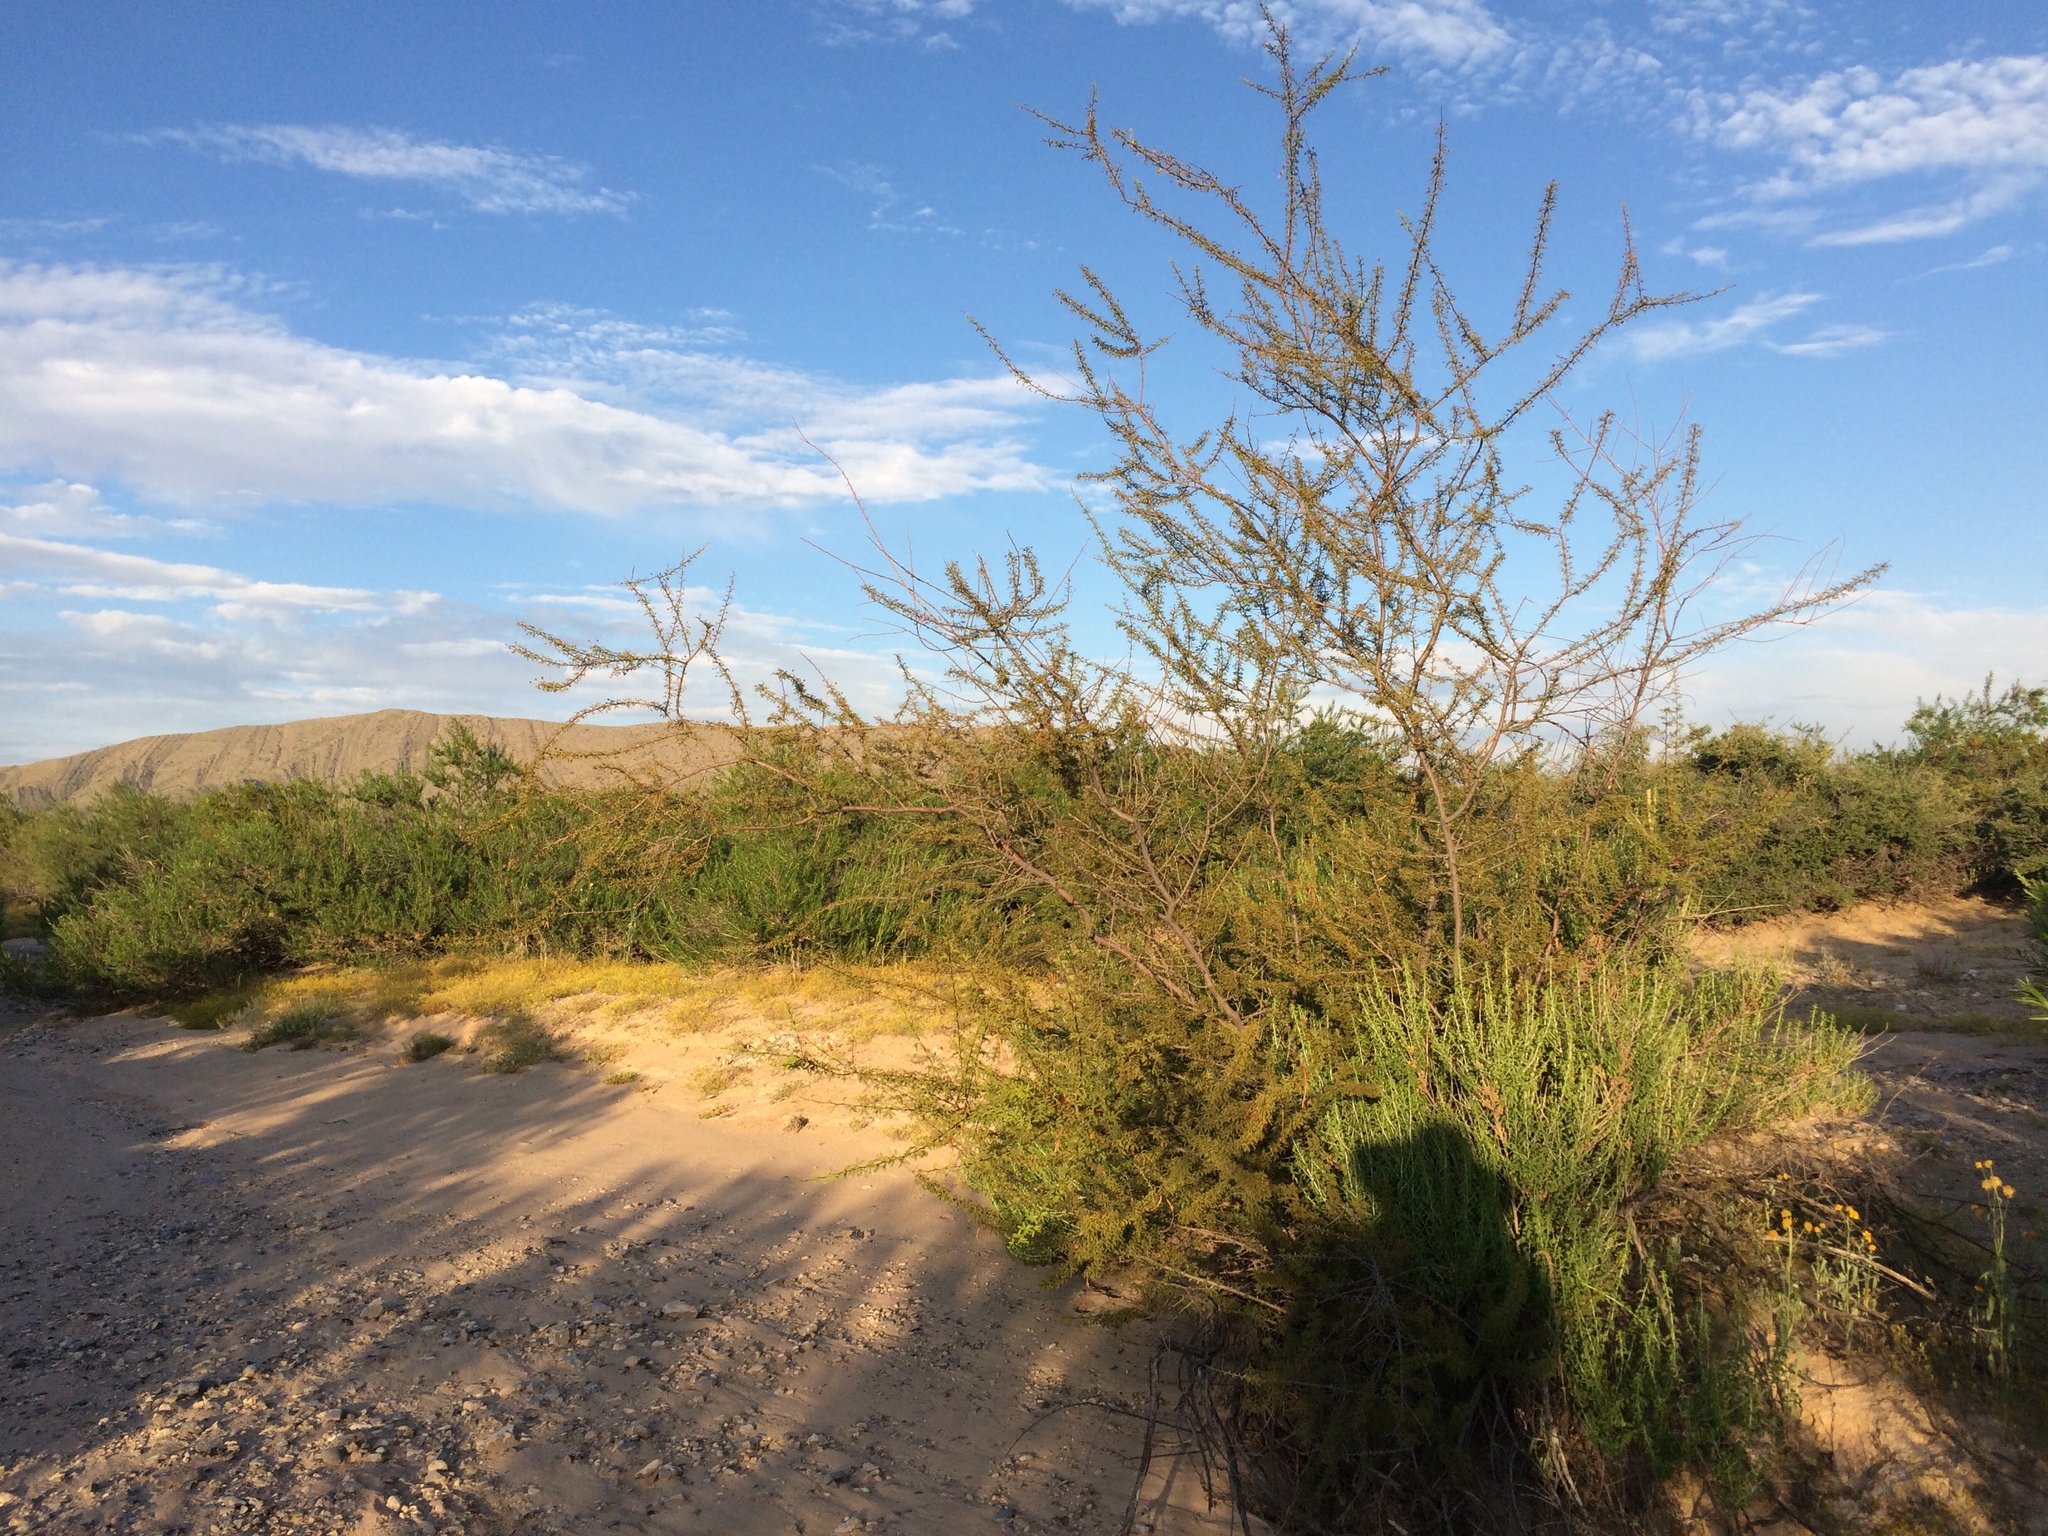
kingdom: Plantae
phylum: Tracheophyta
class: Magnoliopsida
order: Fabales
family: Fabaceae
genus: Vachellia
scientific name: Vachellia vernicosa
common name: Viscid acacia
